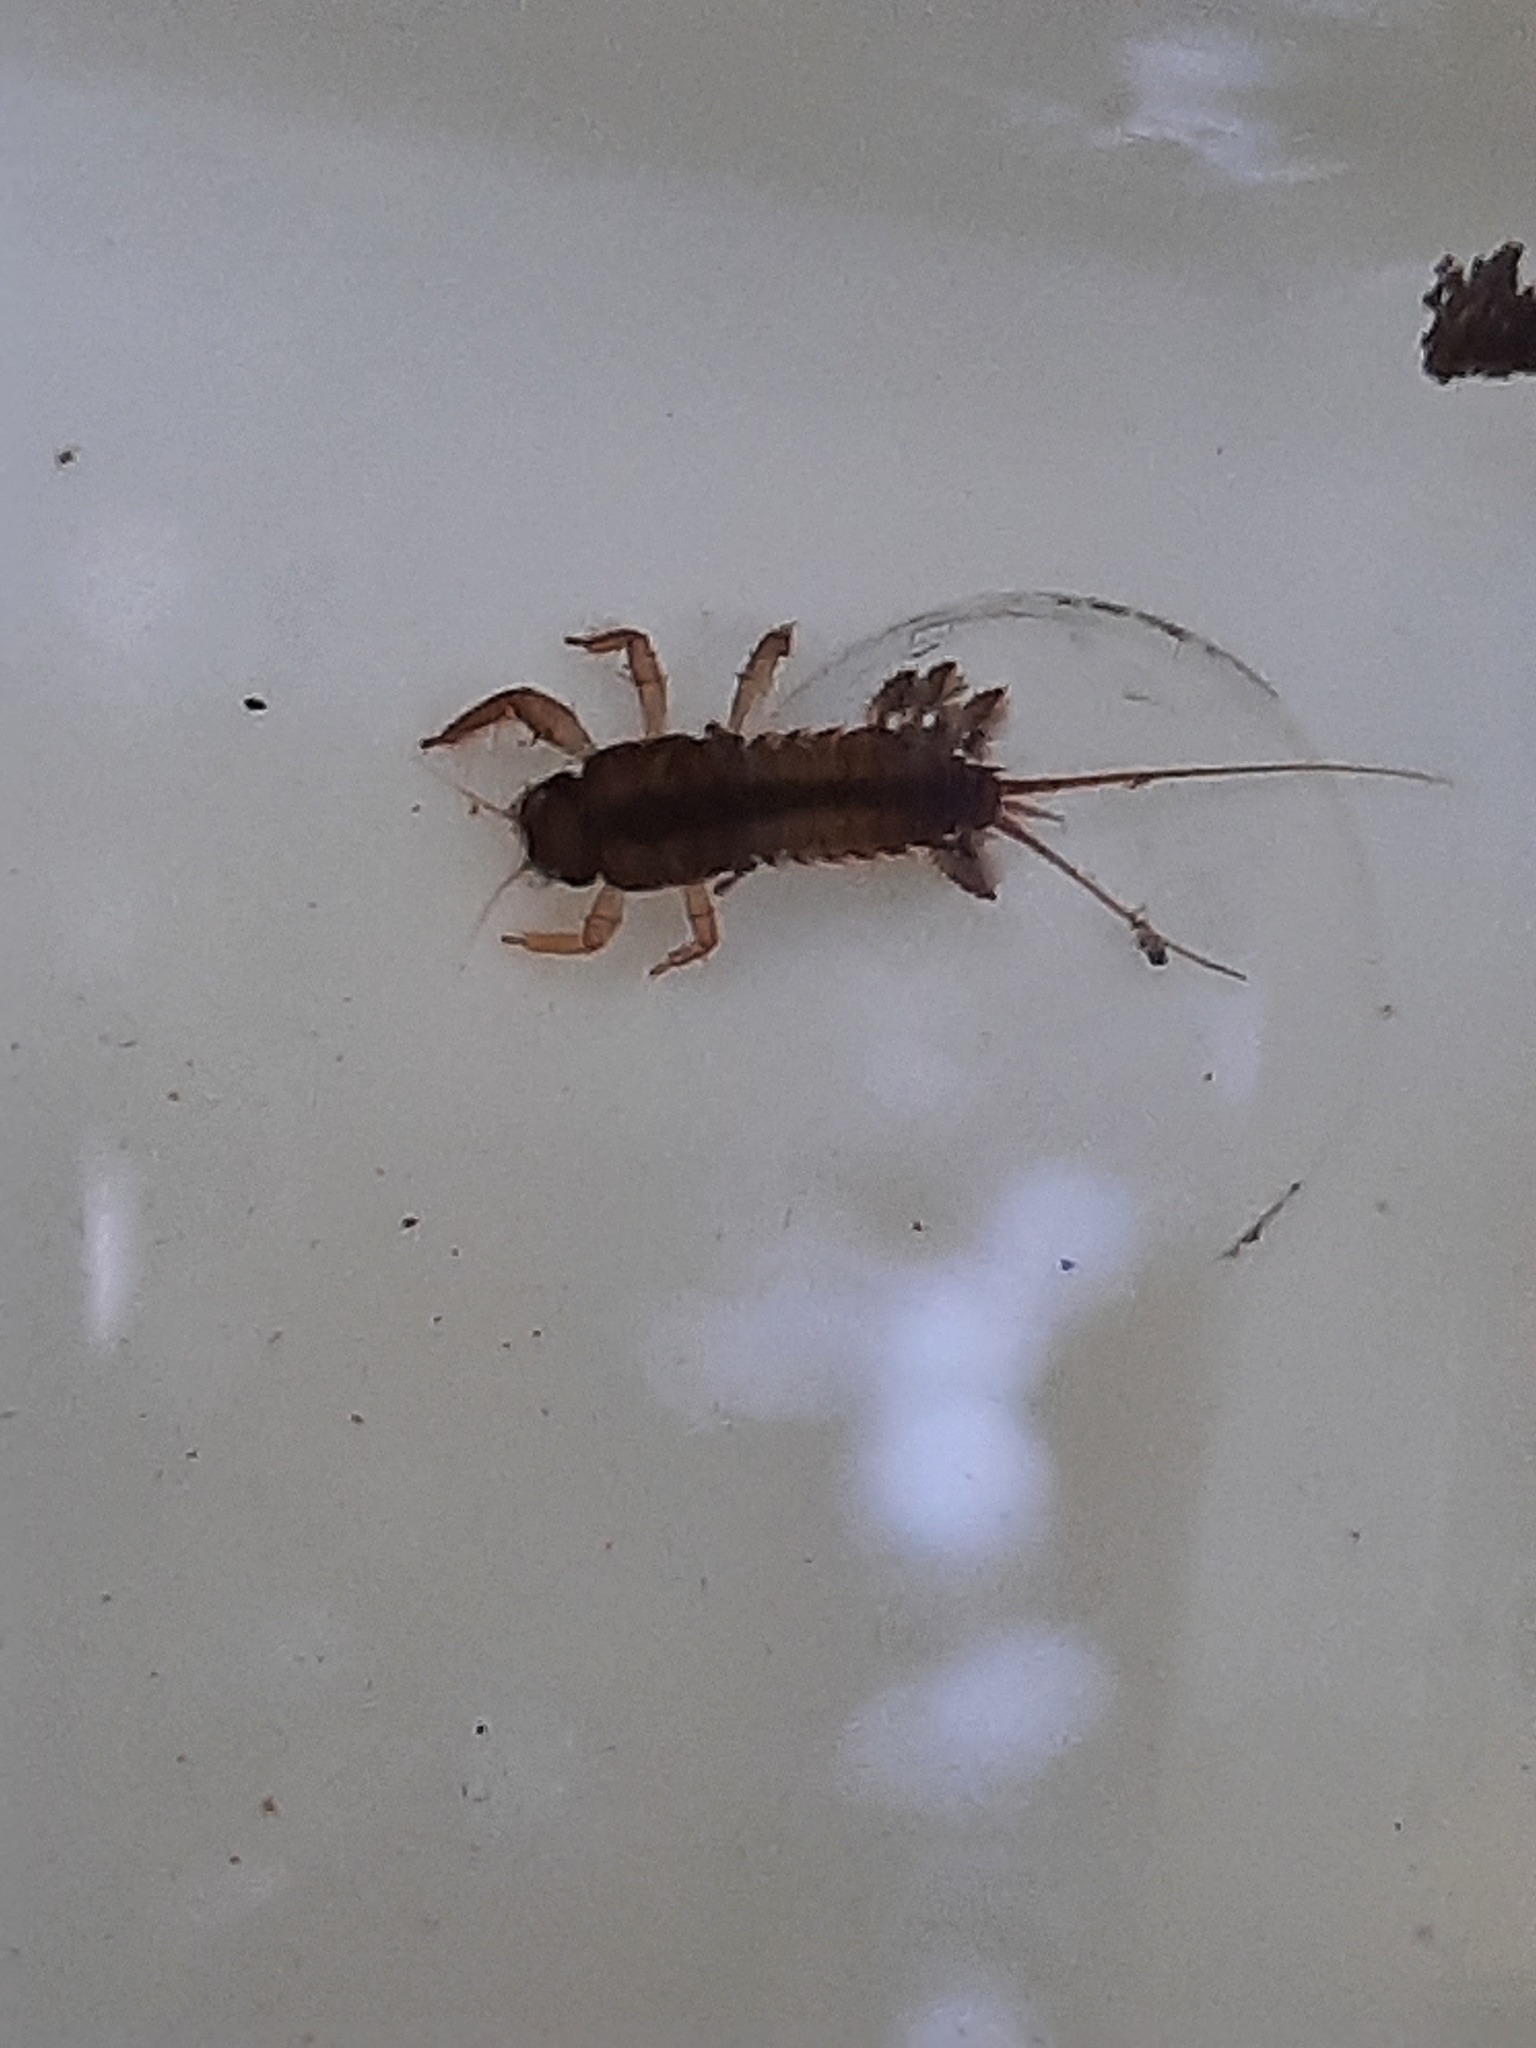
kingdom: Animalia
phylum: Arthropoda
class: Insecta
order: Ephemeroptera
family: Coloburiscidae
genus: Coloburiscus
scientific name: Coloburiscus humeralis
